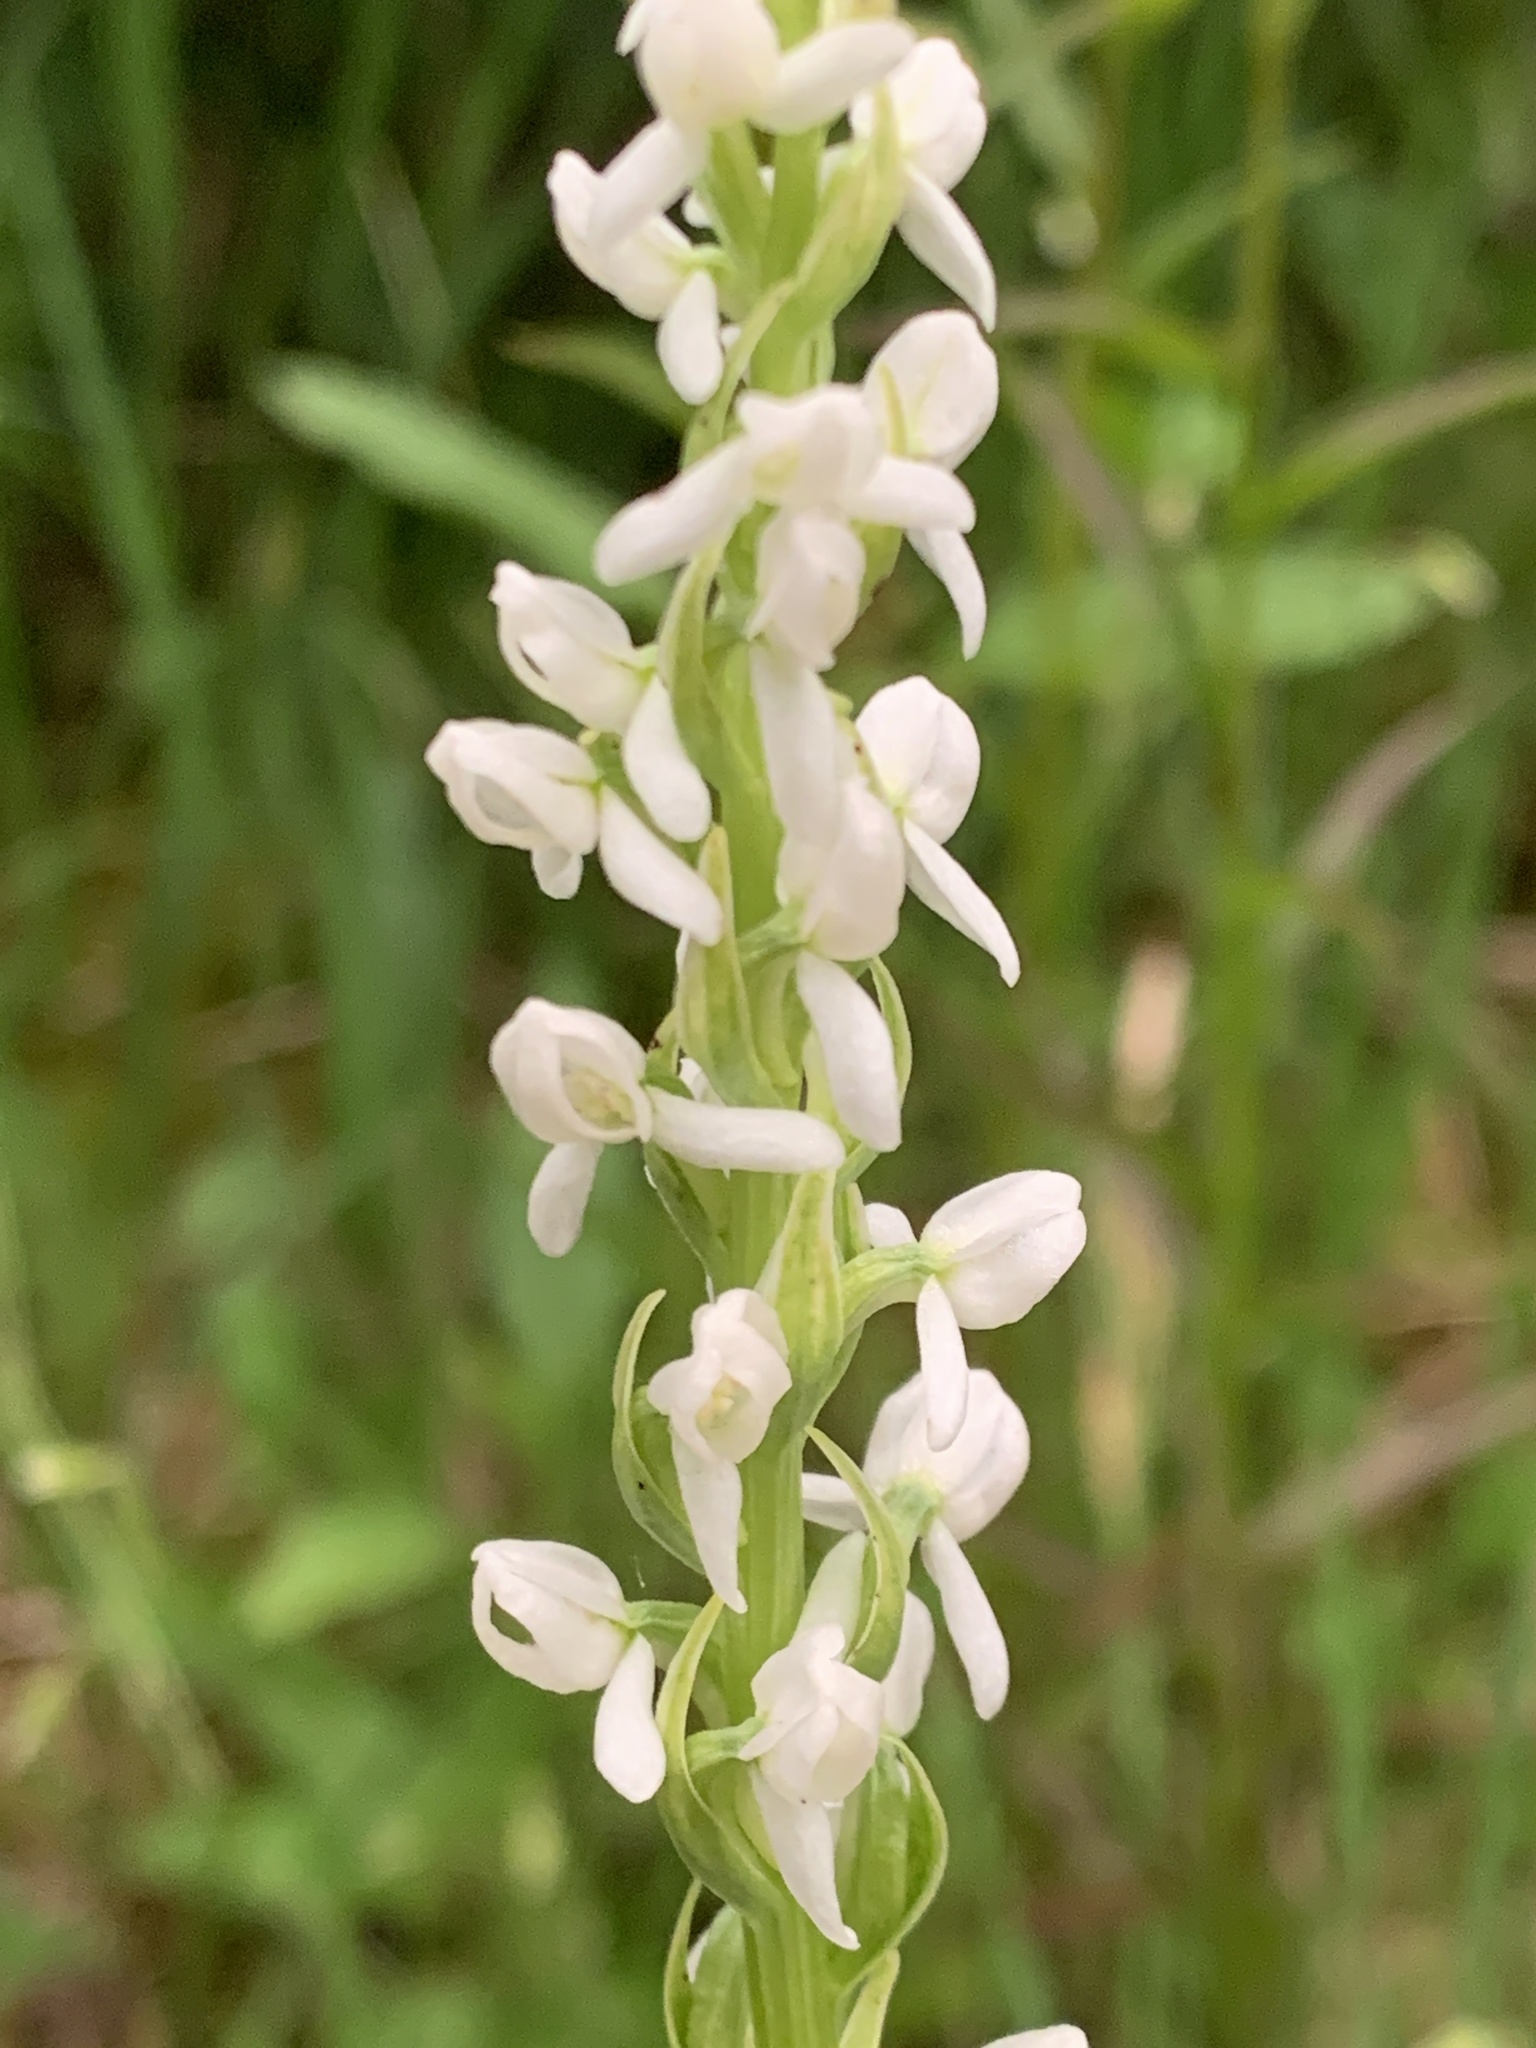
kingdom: Plantae
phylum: Tracheophyta
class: Liliopsida
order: Asparagales
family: Orchidaceae
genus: Platanthera
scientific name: Platanthera dilatata
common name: Bog candles
